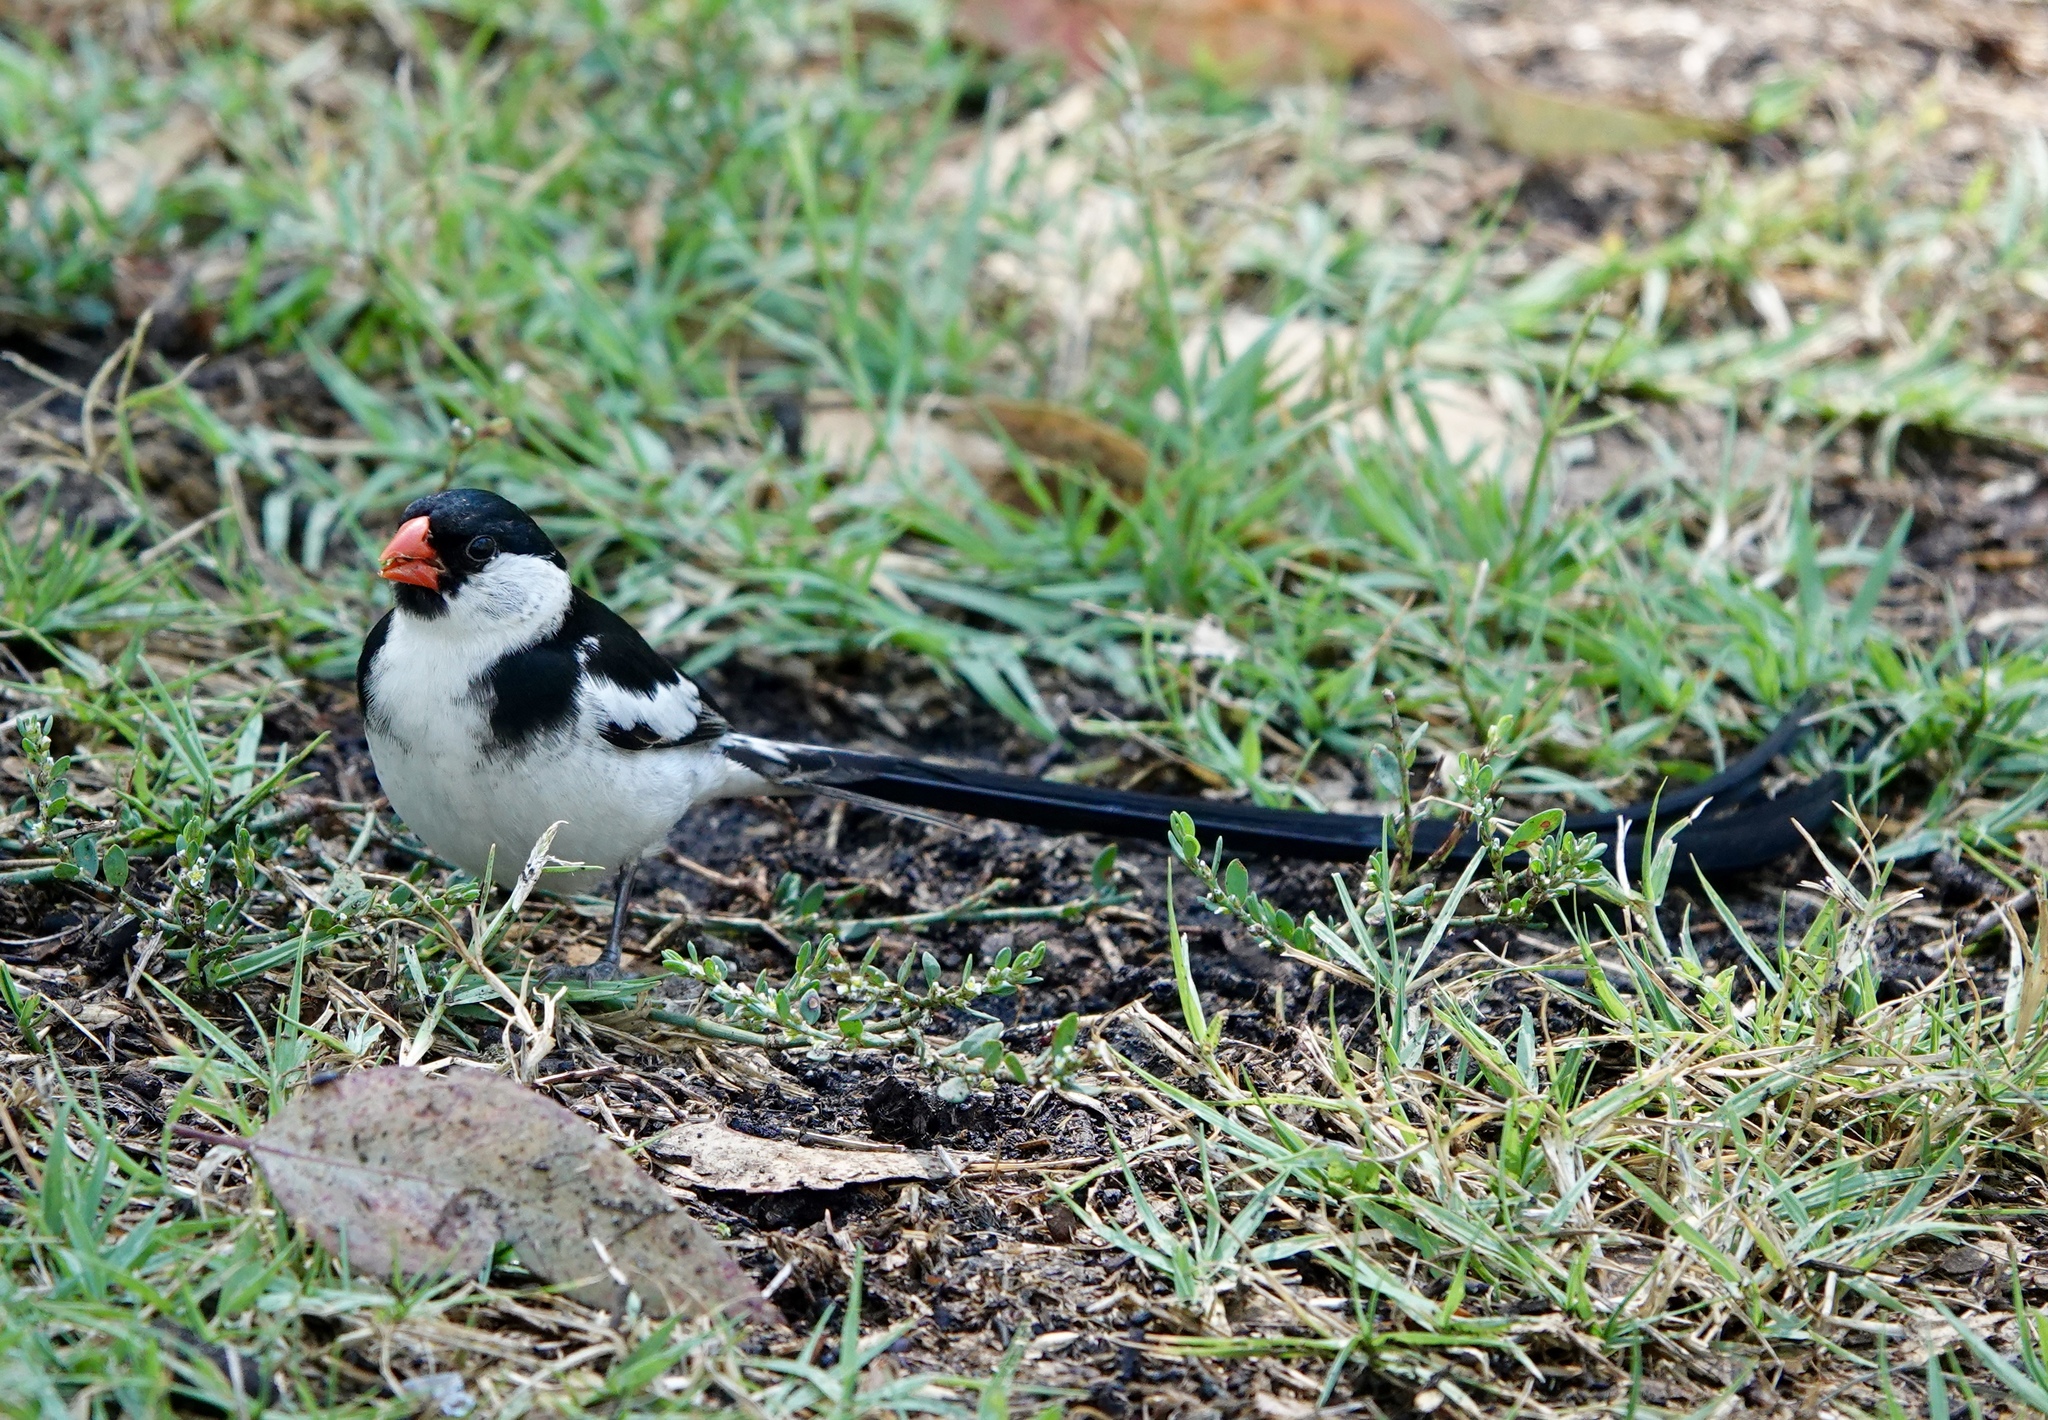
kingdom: Animalia
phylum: Chordata
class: Aves
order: Passeriformes
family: Viduidae
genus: Vidua
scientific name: Vidua macroura
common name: Pin-tailed whydah
